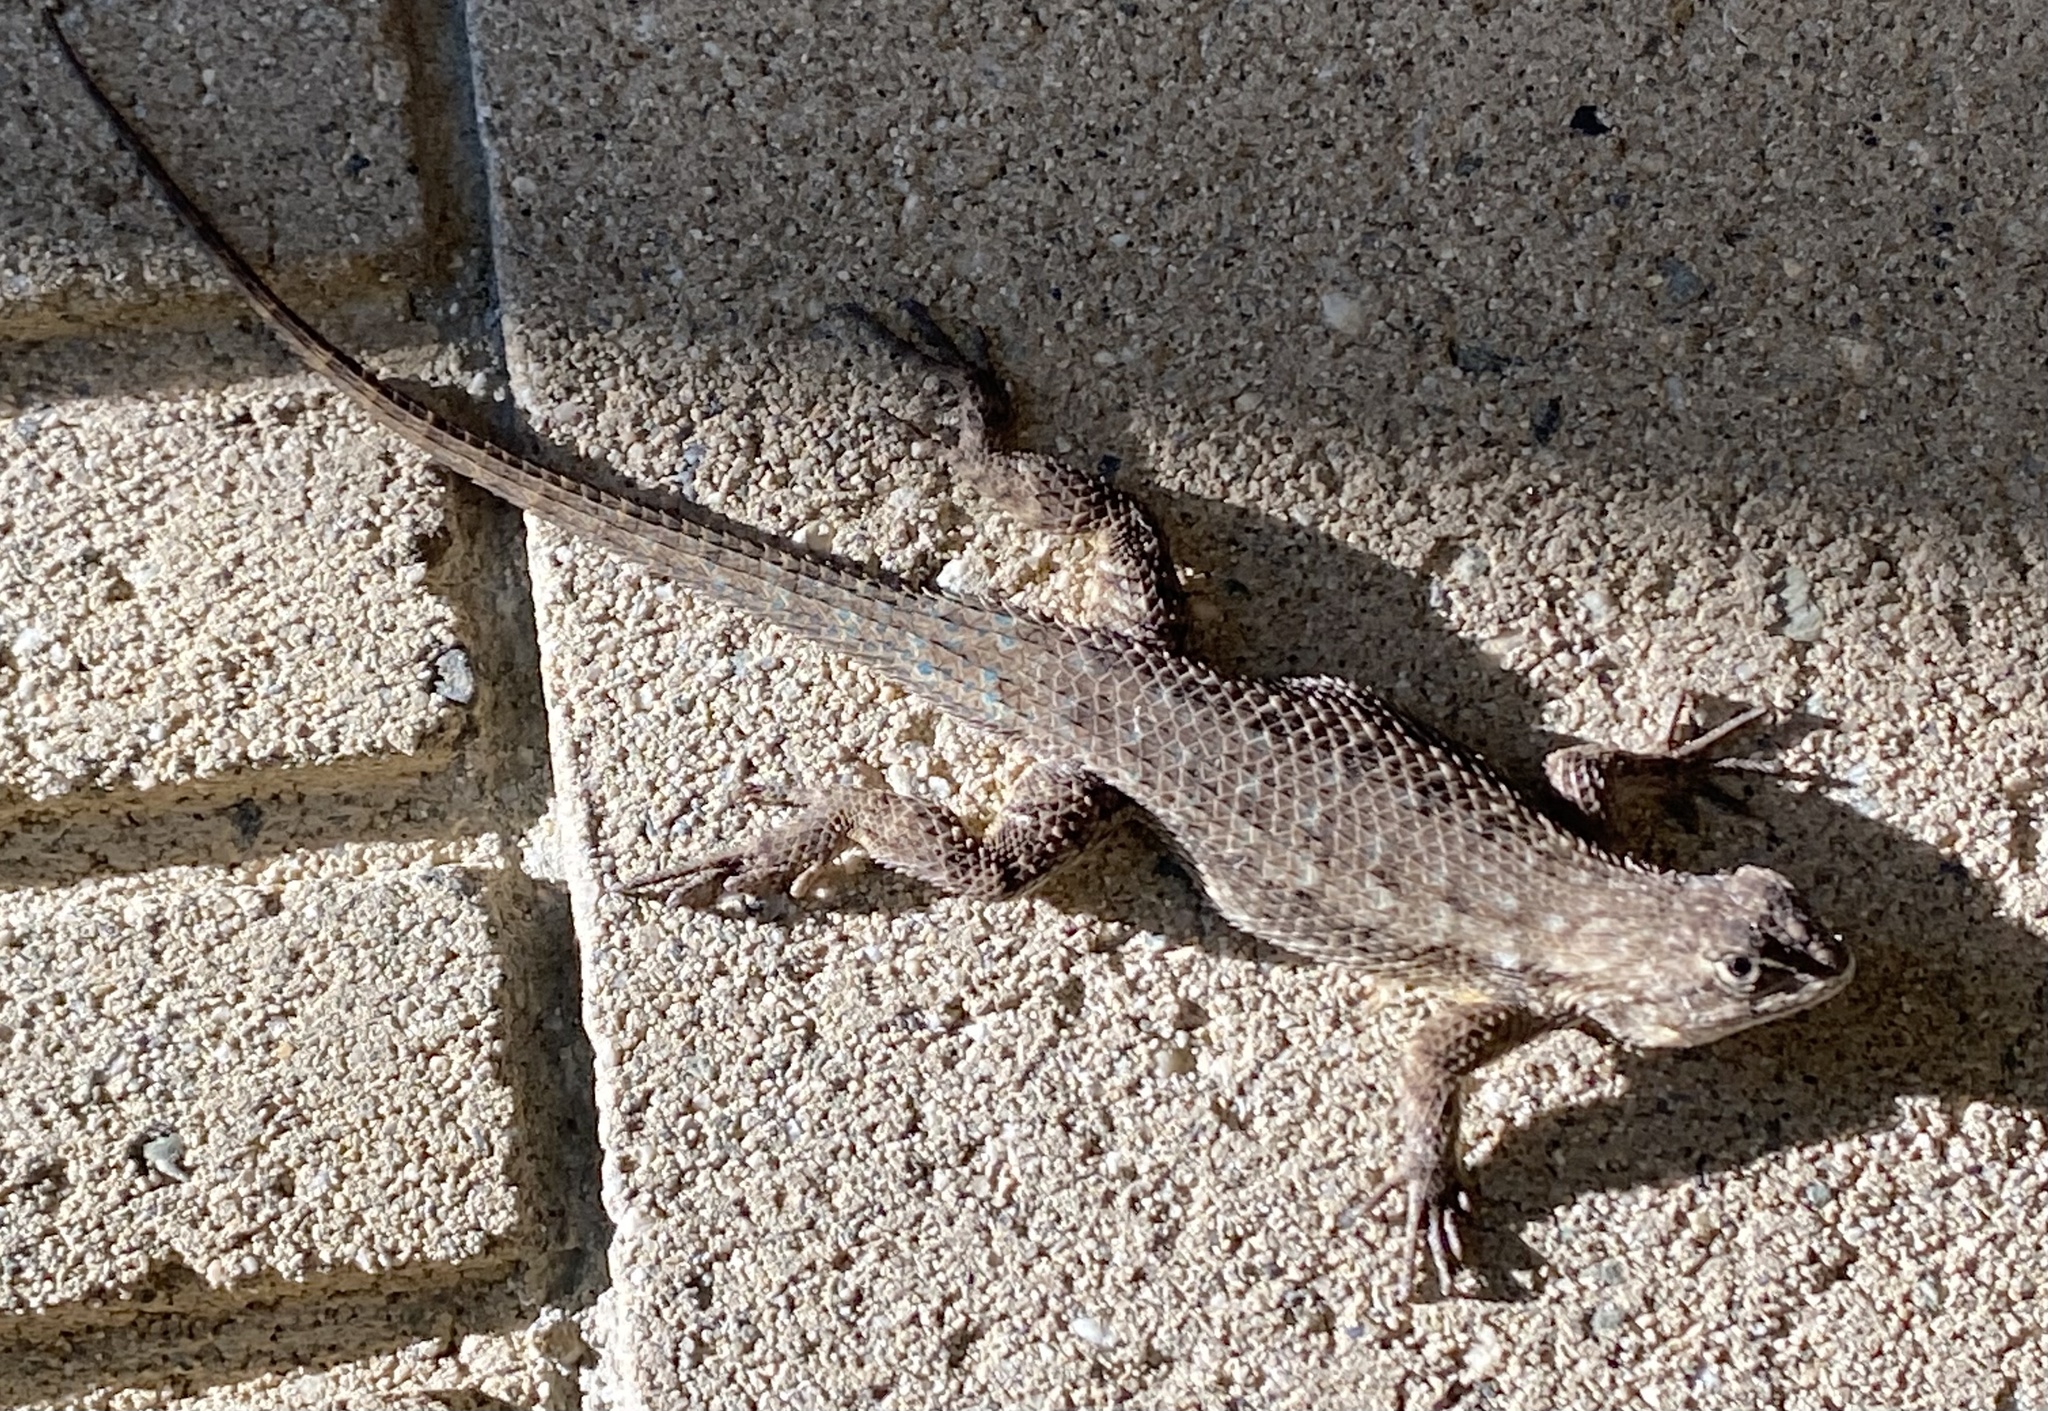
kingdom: Animalia
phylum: Chordata
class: Squamata
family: Phrynosomatidae
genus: Sceloporus
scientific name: Sceloporus occidentalis
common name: Western fence lizard
